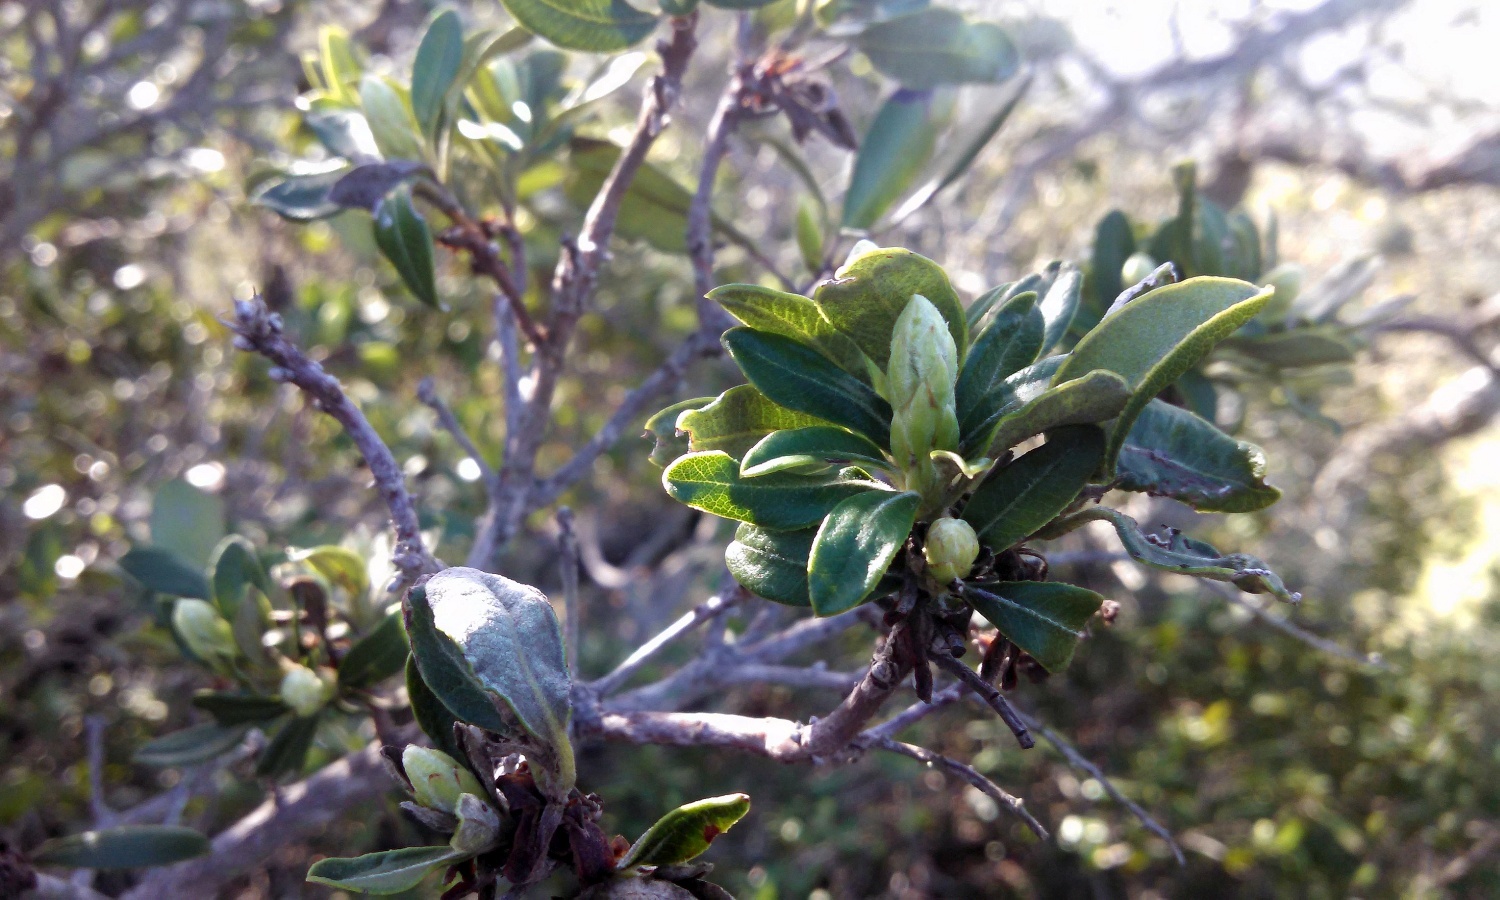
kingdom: Plantae
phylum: Tracheophyta
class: Magnoliopsida
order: Ericales
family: Ericaceae
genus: Comarostaphylis
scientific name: Comarostaphylis diversifolia
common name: Summer-holly
